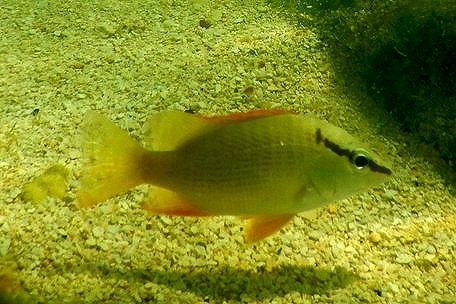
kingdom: Animalia
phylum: Chordata
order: Perciformes
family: Lutjanidae
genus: Lutjanus
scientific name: Lutjanus apodus
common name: Schoolmaster
